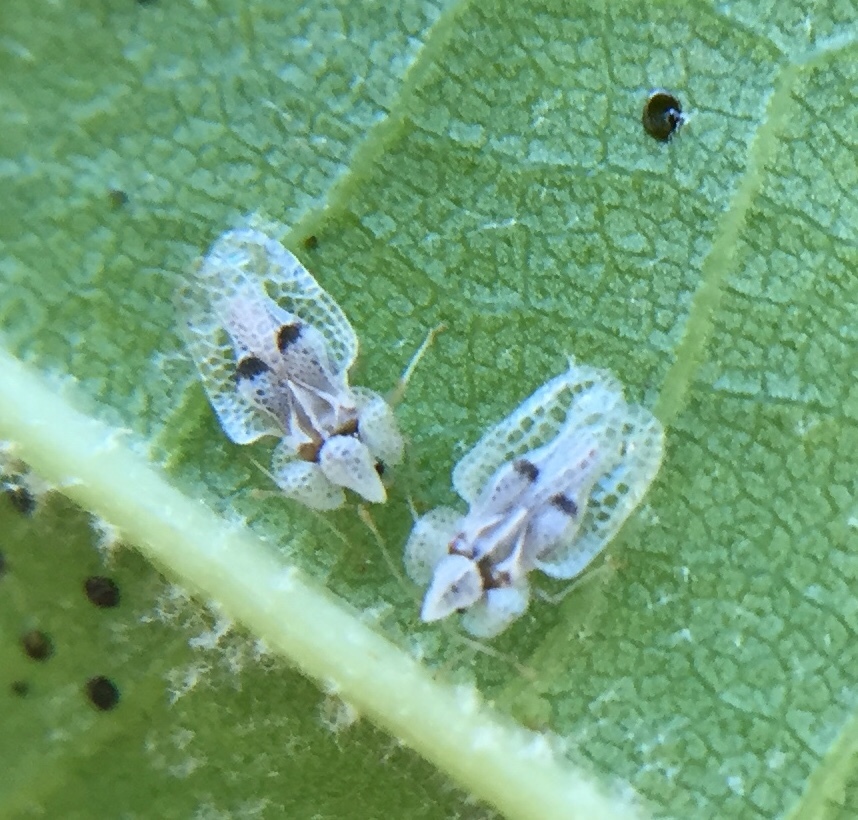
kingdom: Animalia
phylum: Arthropoda
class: Insecta
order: Hemiptera
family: Tingidae
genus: Corythucha
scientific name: Corythucha ciliata
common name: Sycamore lace bug
